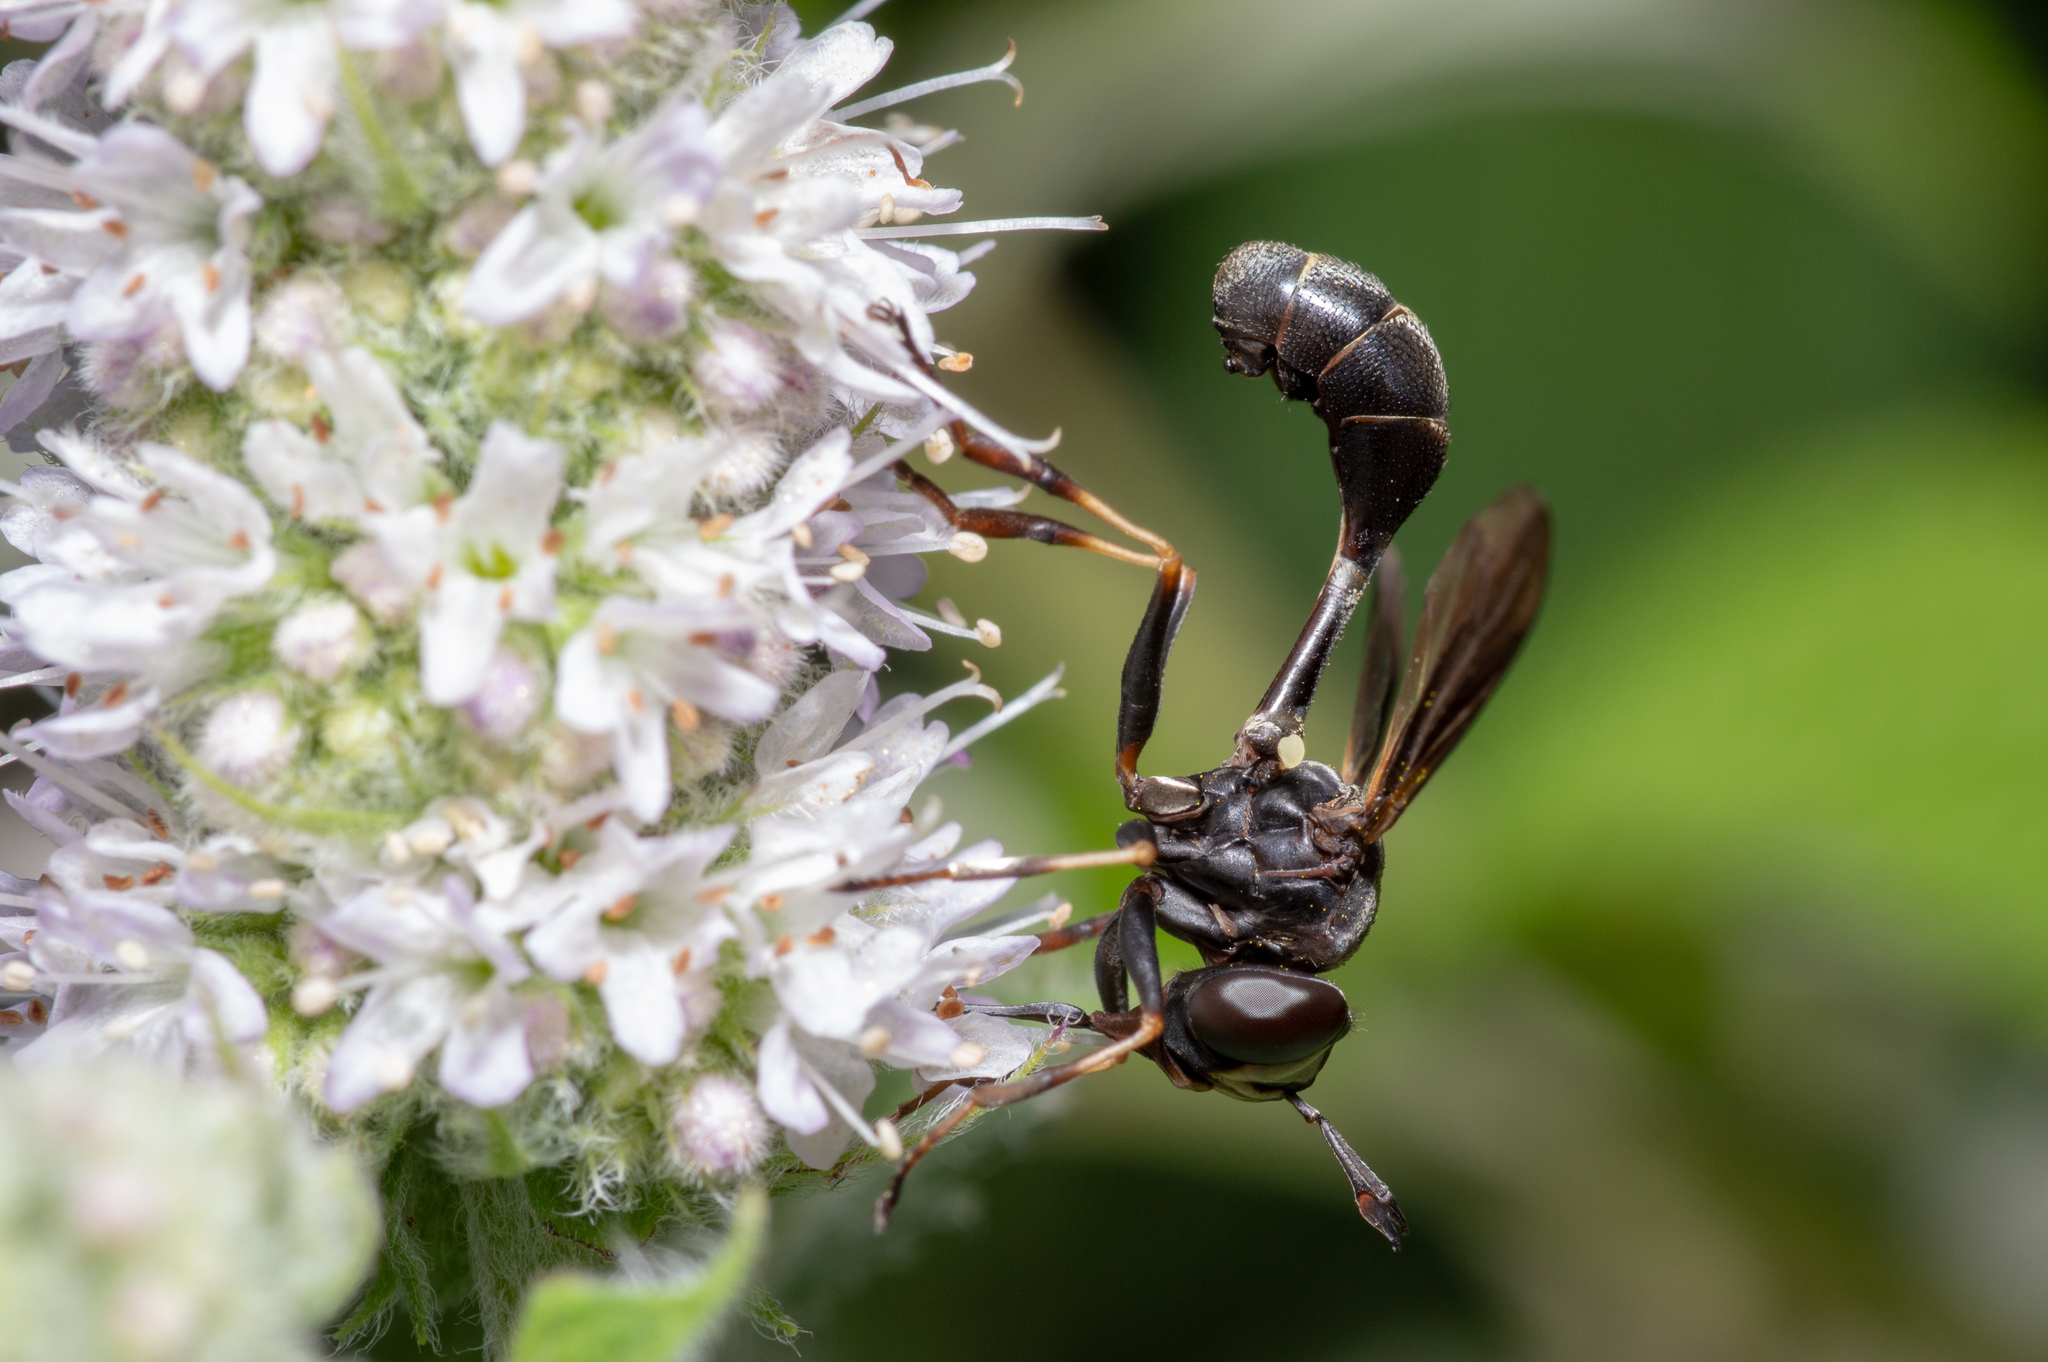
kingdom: Animalia
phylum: Arthropoda
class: Insecta
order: Diptera
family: Conopidae
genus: Physocephala
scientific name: Physocephala tibialis
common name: Common eastern physocephala
